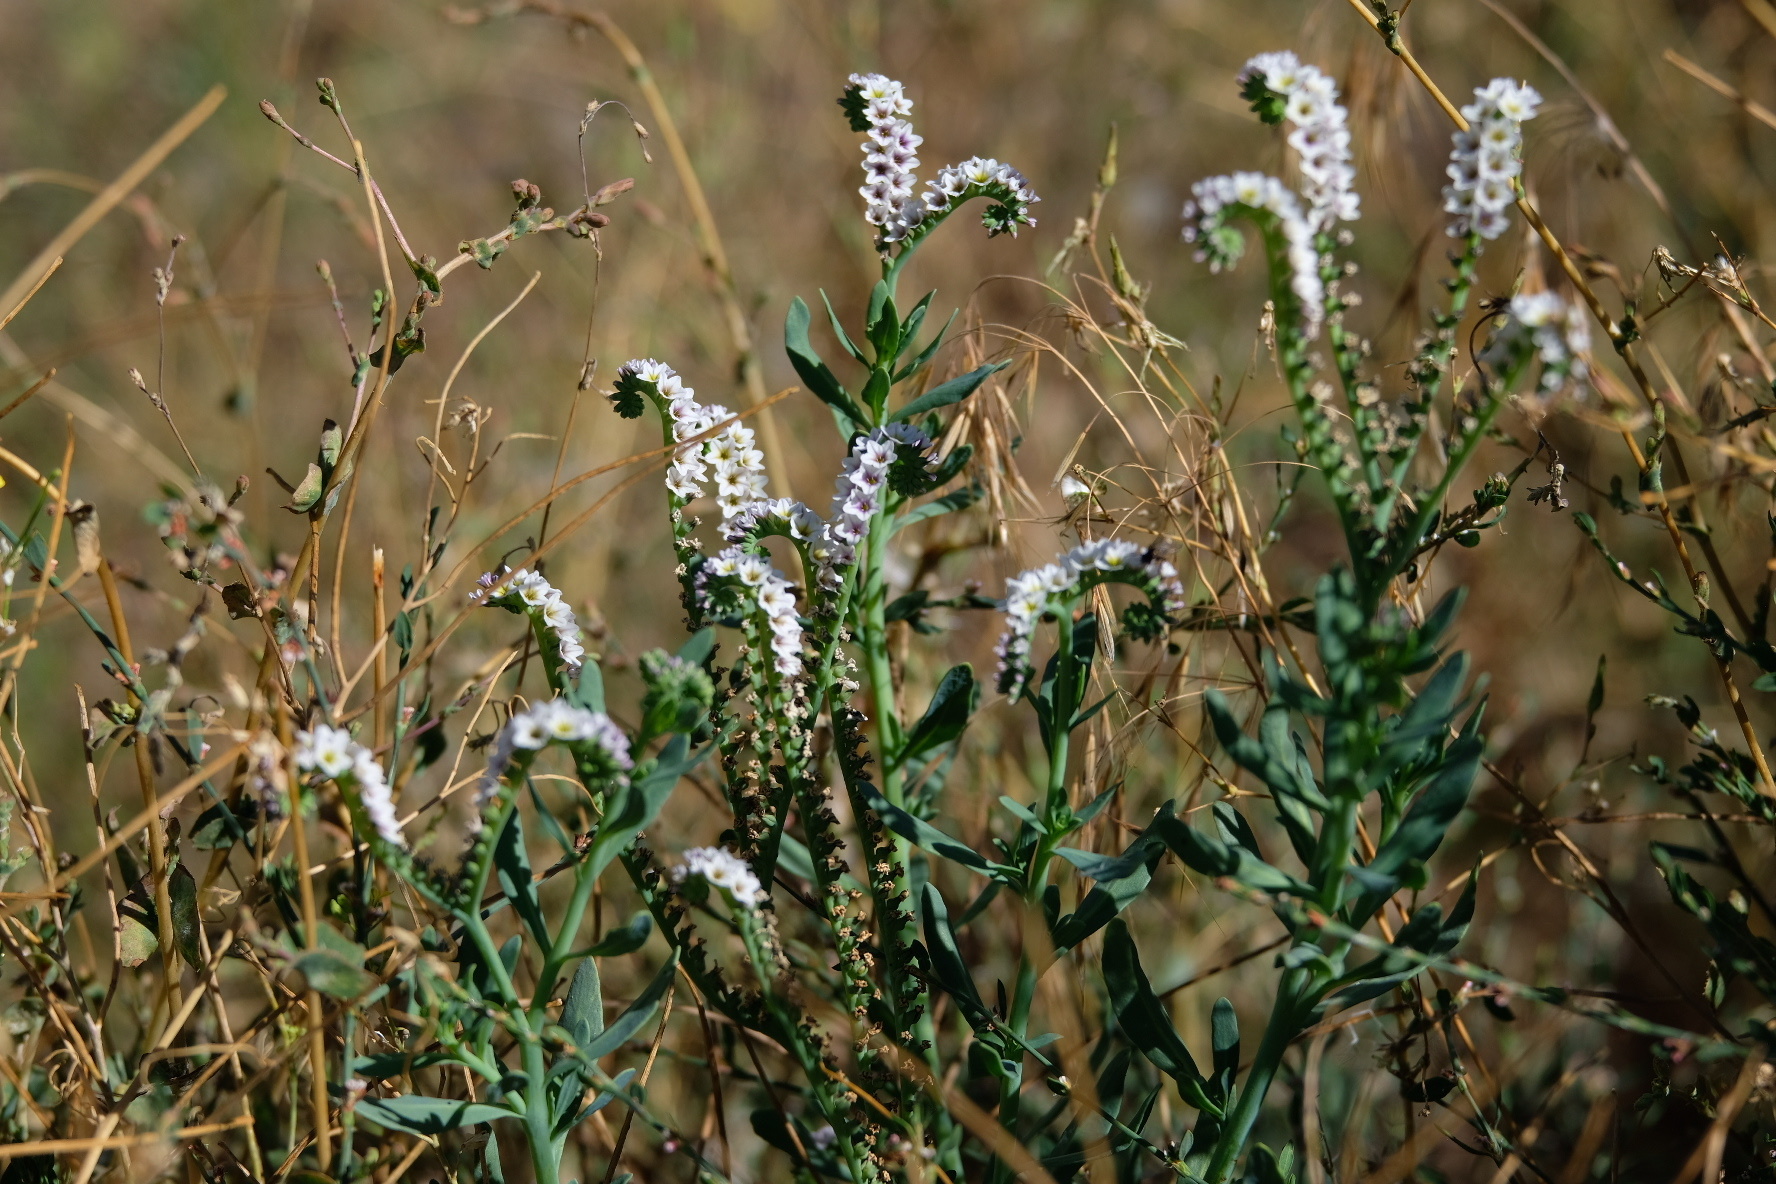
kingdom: Plantae
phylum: Tracheophyta
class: Magnoliopsida
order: Boraginales
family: Heliotropiaceae
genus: Heliotropium
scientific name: Heliotropium curassavicum
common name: Seaside heliotrope
